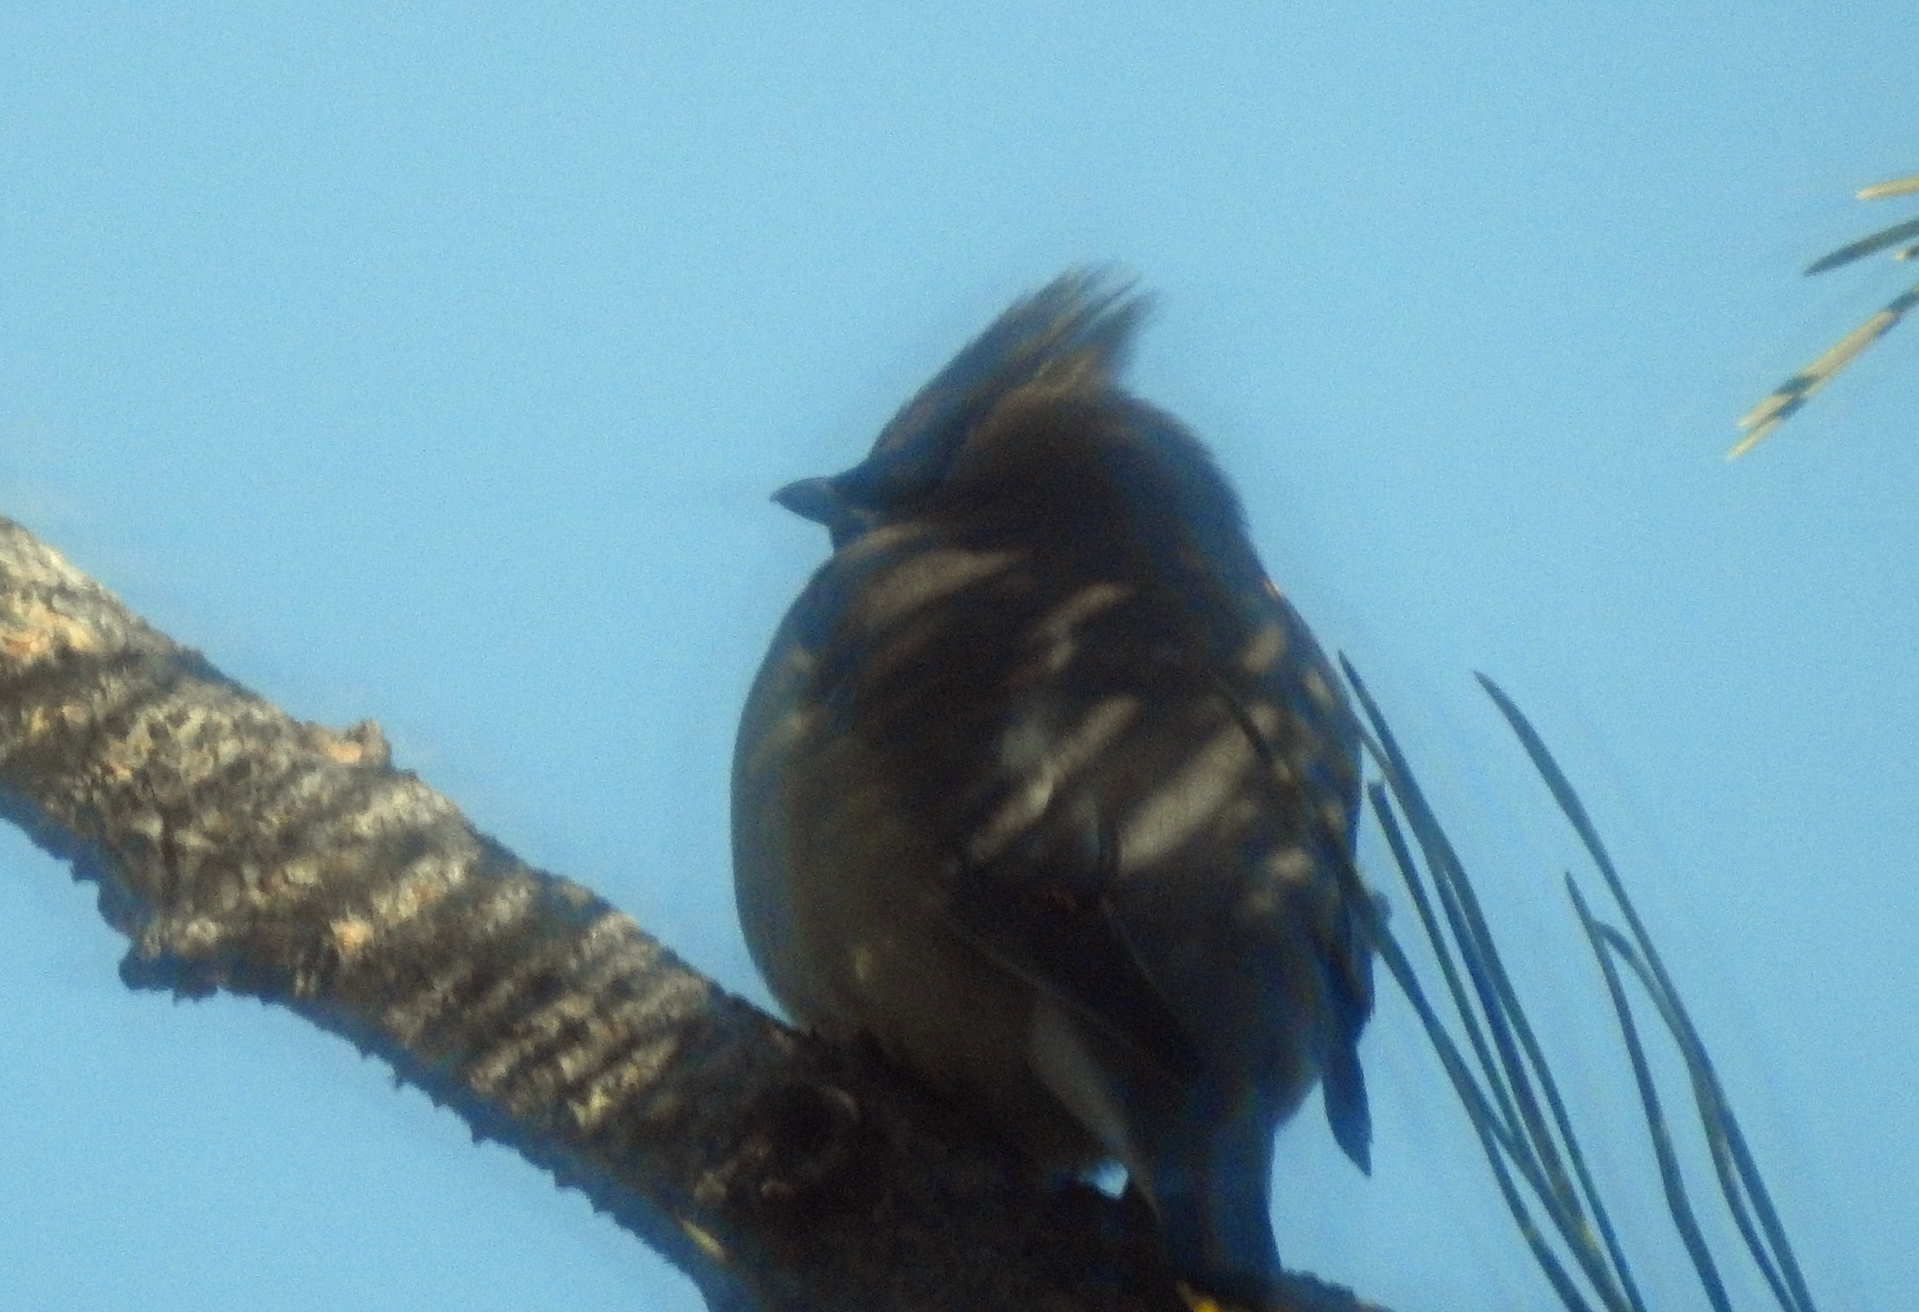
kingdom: Animalia
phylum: Chordata
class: Aves
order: Passeriformes
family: Bombycillidae
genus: Bombycilla
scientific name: Bombycilla cedrorum
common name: Cedar waxwing
